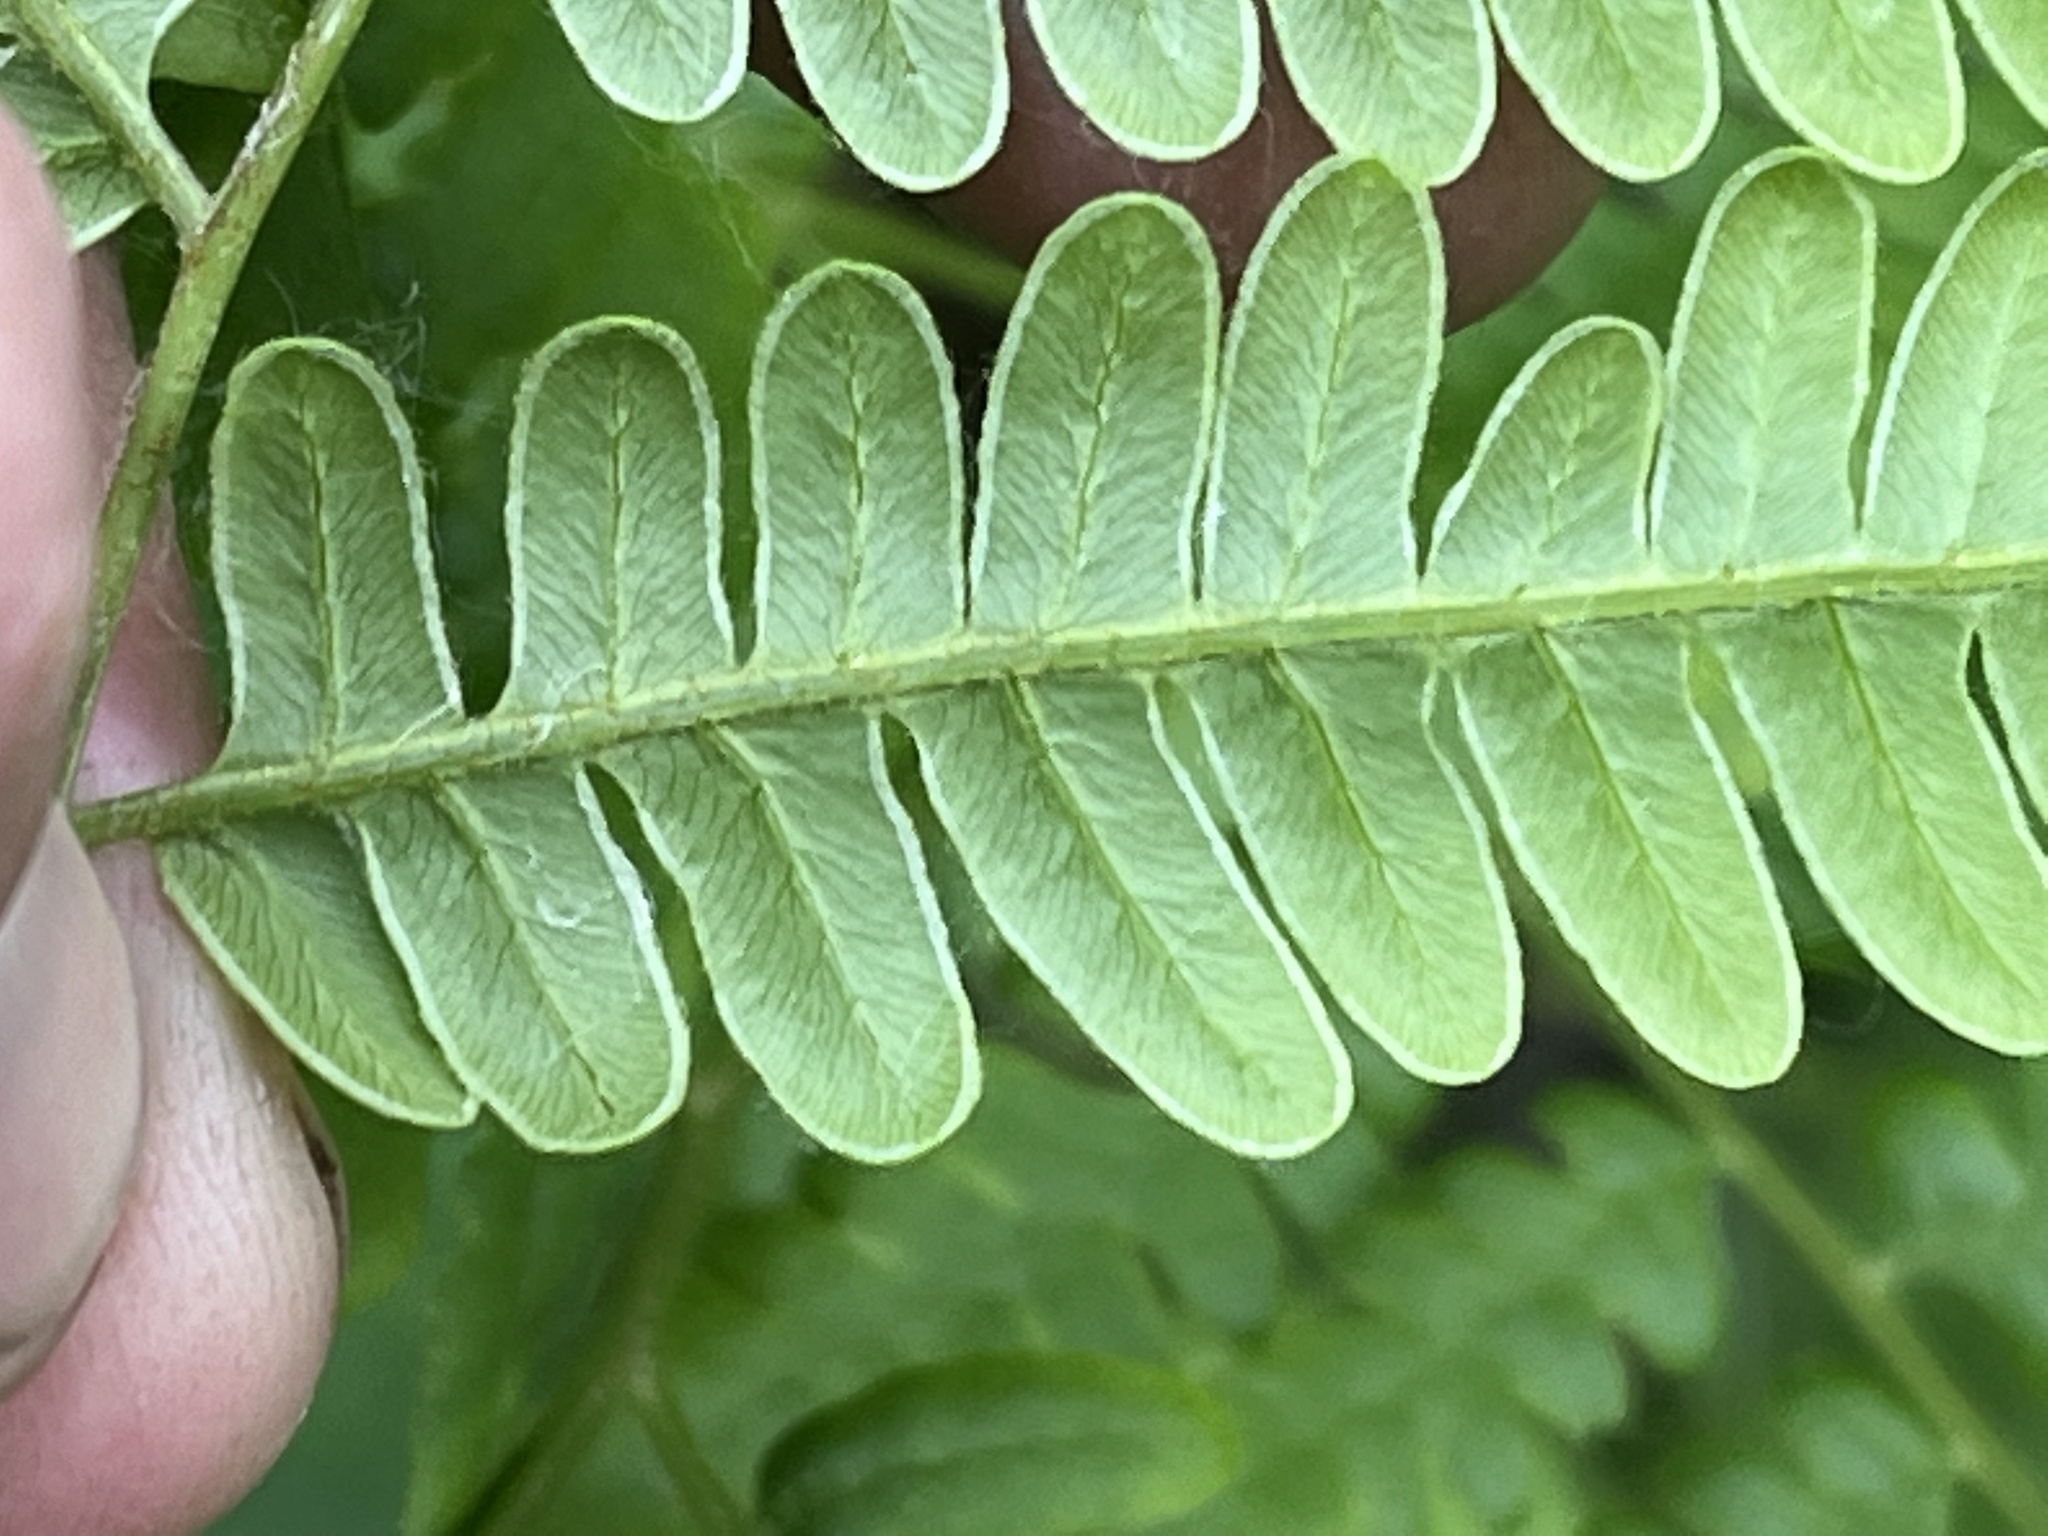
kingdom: Plantae
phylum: Tracheophyta
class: Polypodiopsida
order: Polypodiales
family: Dennstaedtiaceae
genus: Pteridium
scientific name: Pteridium aquilinum
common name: Bracken
